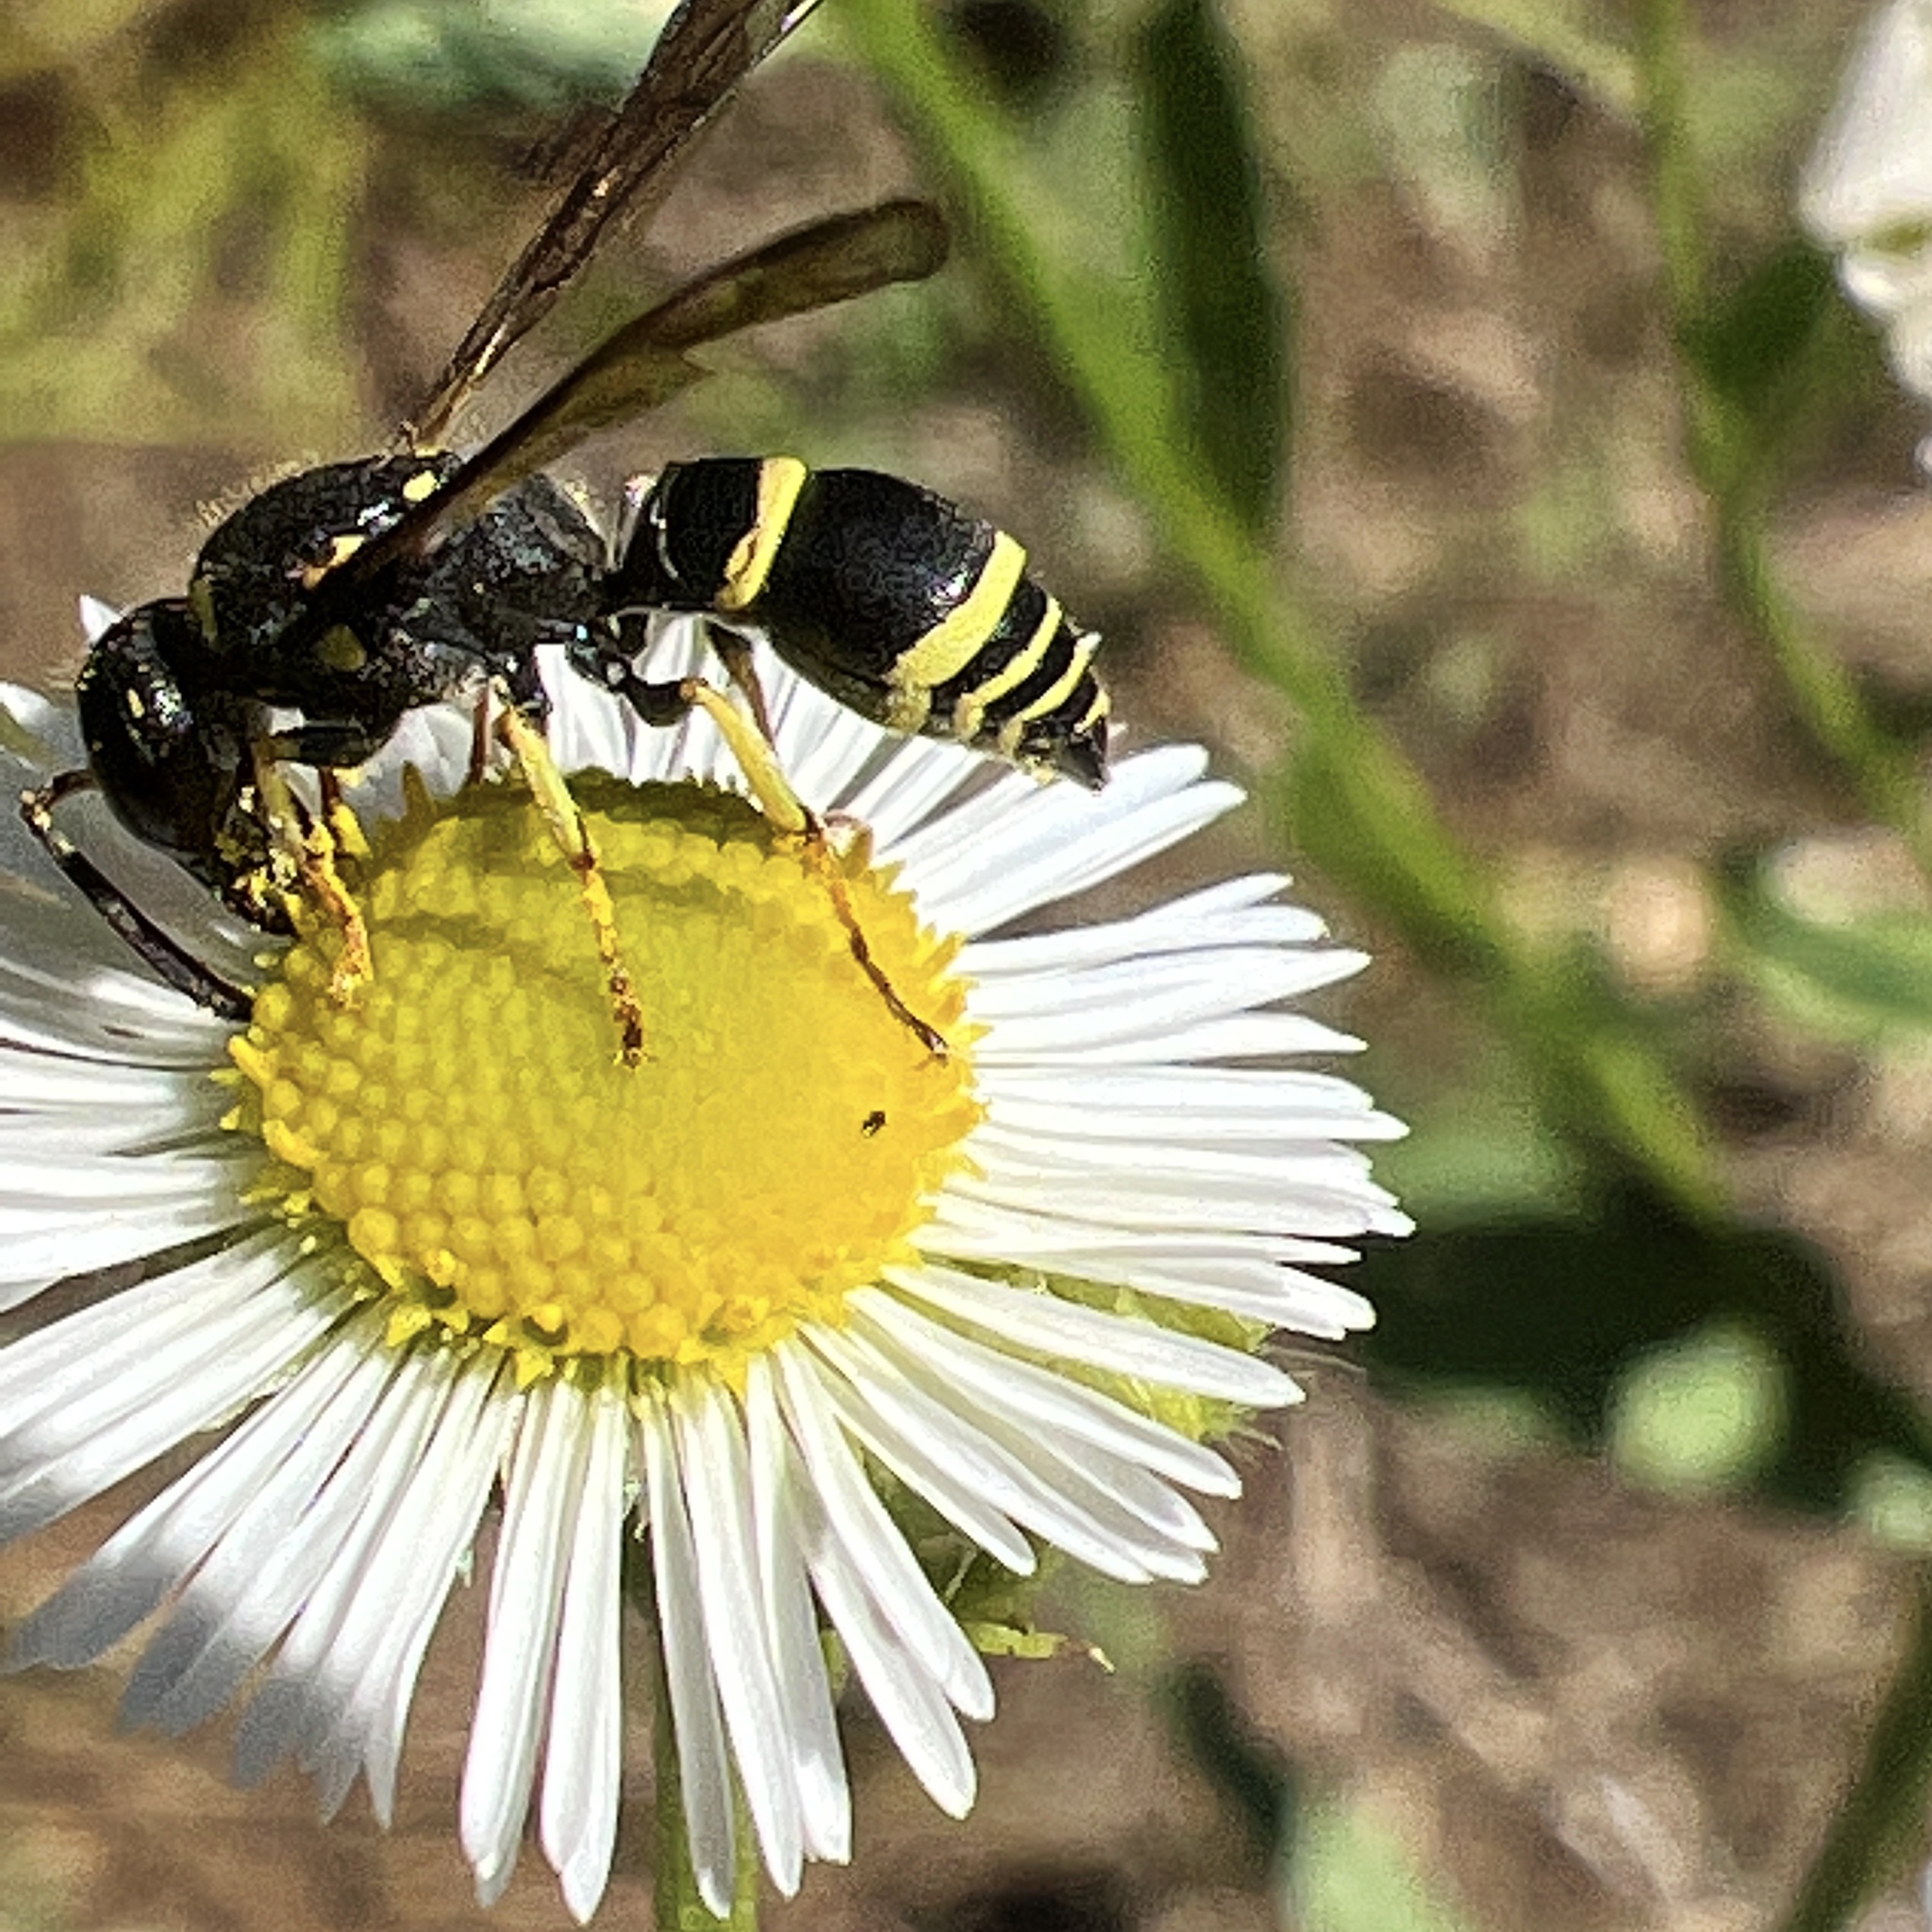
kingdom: Animalia
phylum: Arthropoda
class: Insecta
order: Hymenoptera
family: Vespidae
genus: Ancistrocerus
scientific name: Ancistrocerus adiabatus
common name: Bramble mason wasp
